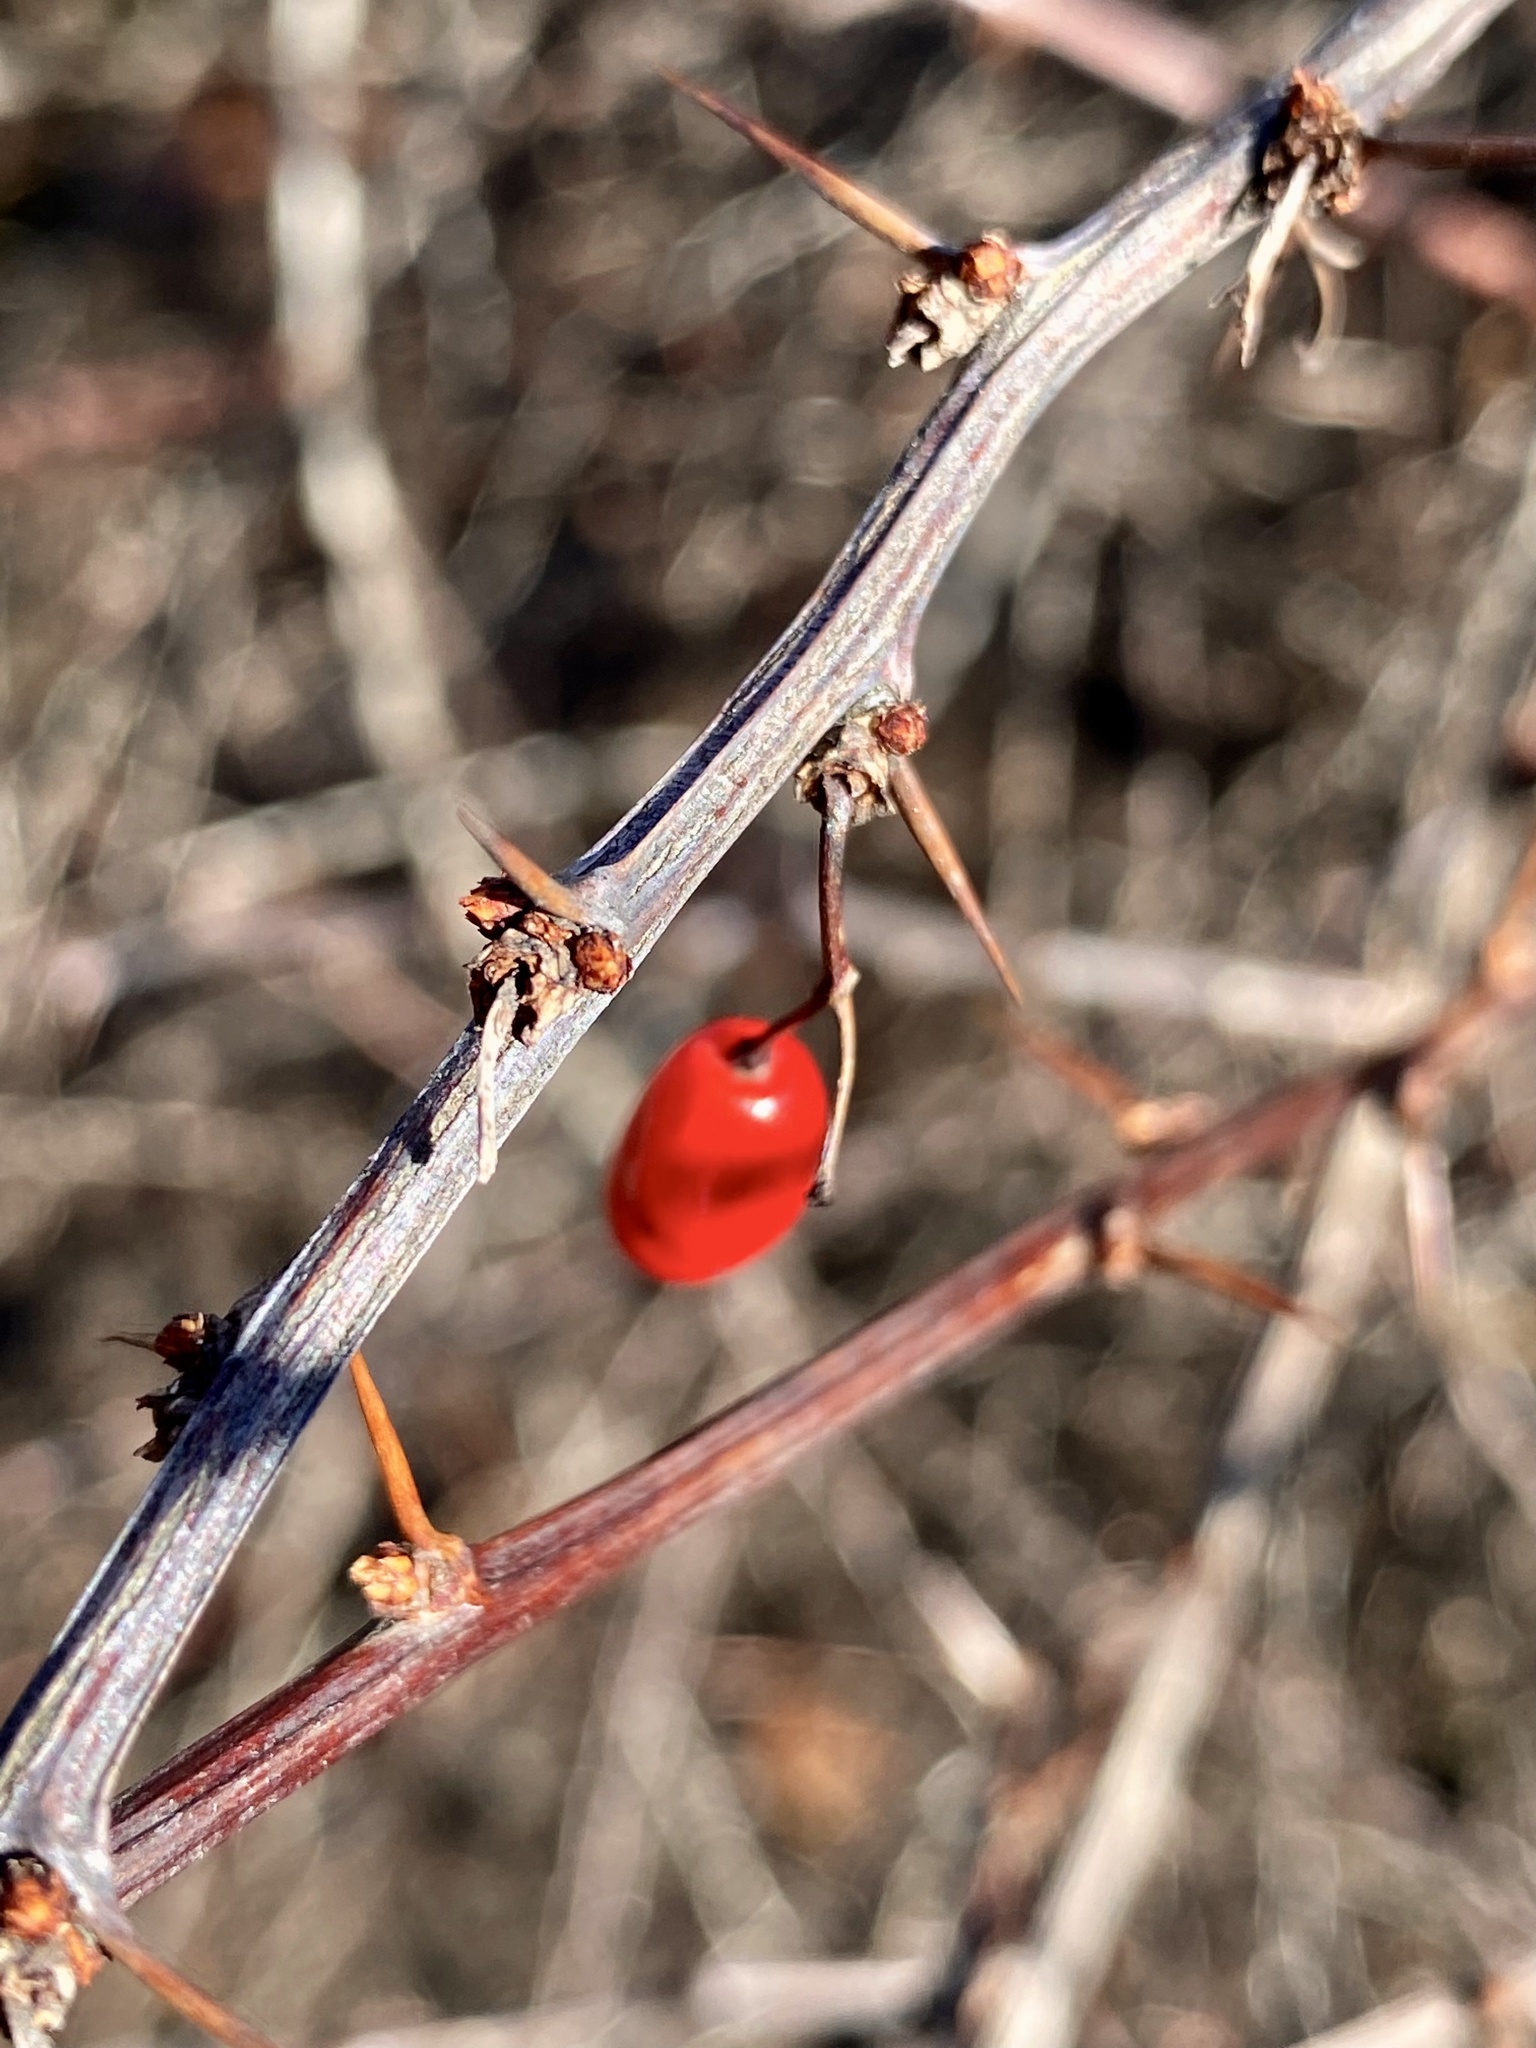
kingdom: Plantae
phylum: Tracheophyta
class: Magnoliopsida
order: Ranunculales
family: Berberidaceae
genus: Berberis
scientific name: Berberis thunbergii
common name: Japanese barberry
